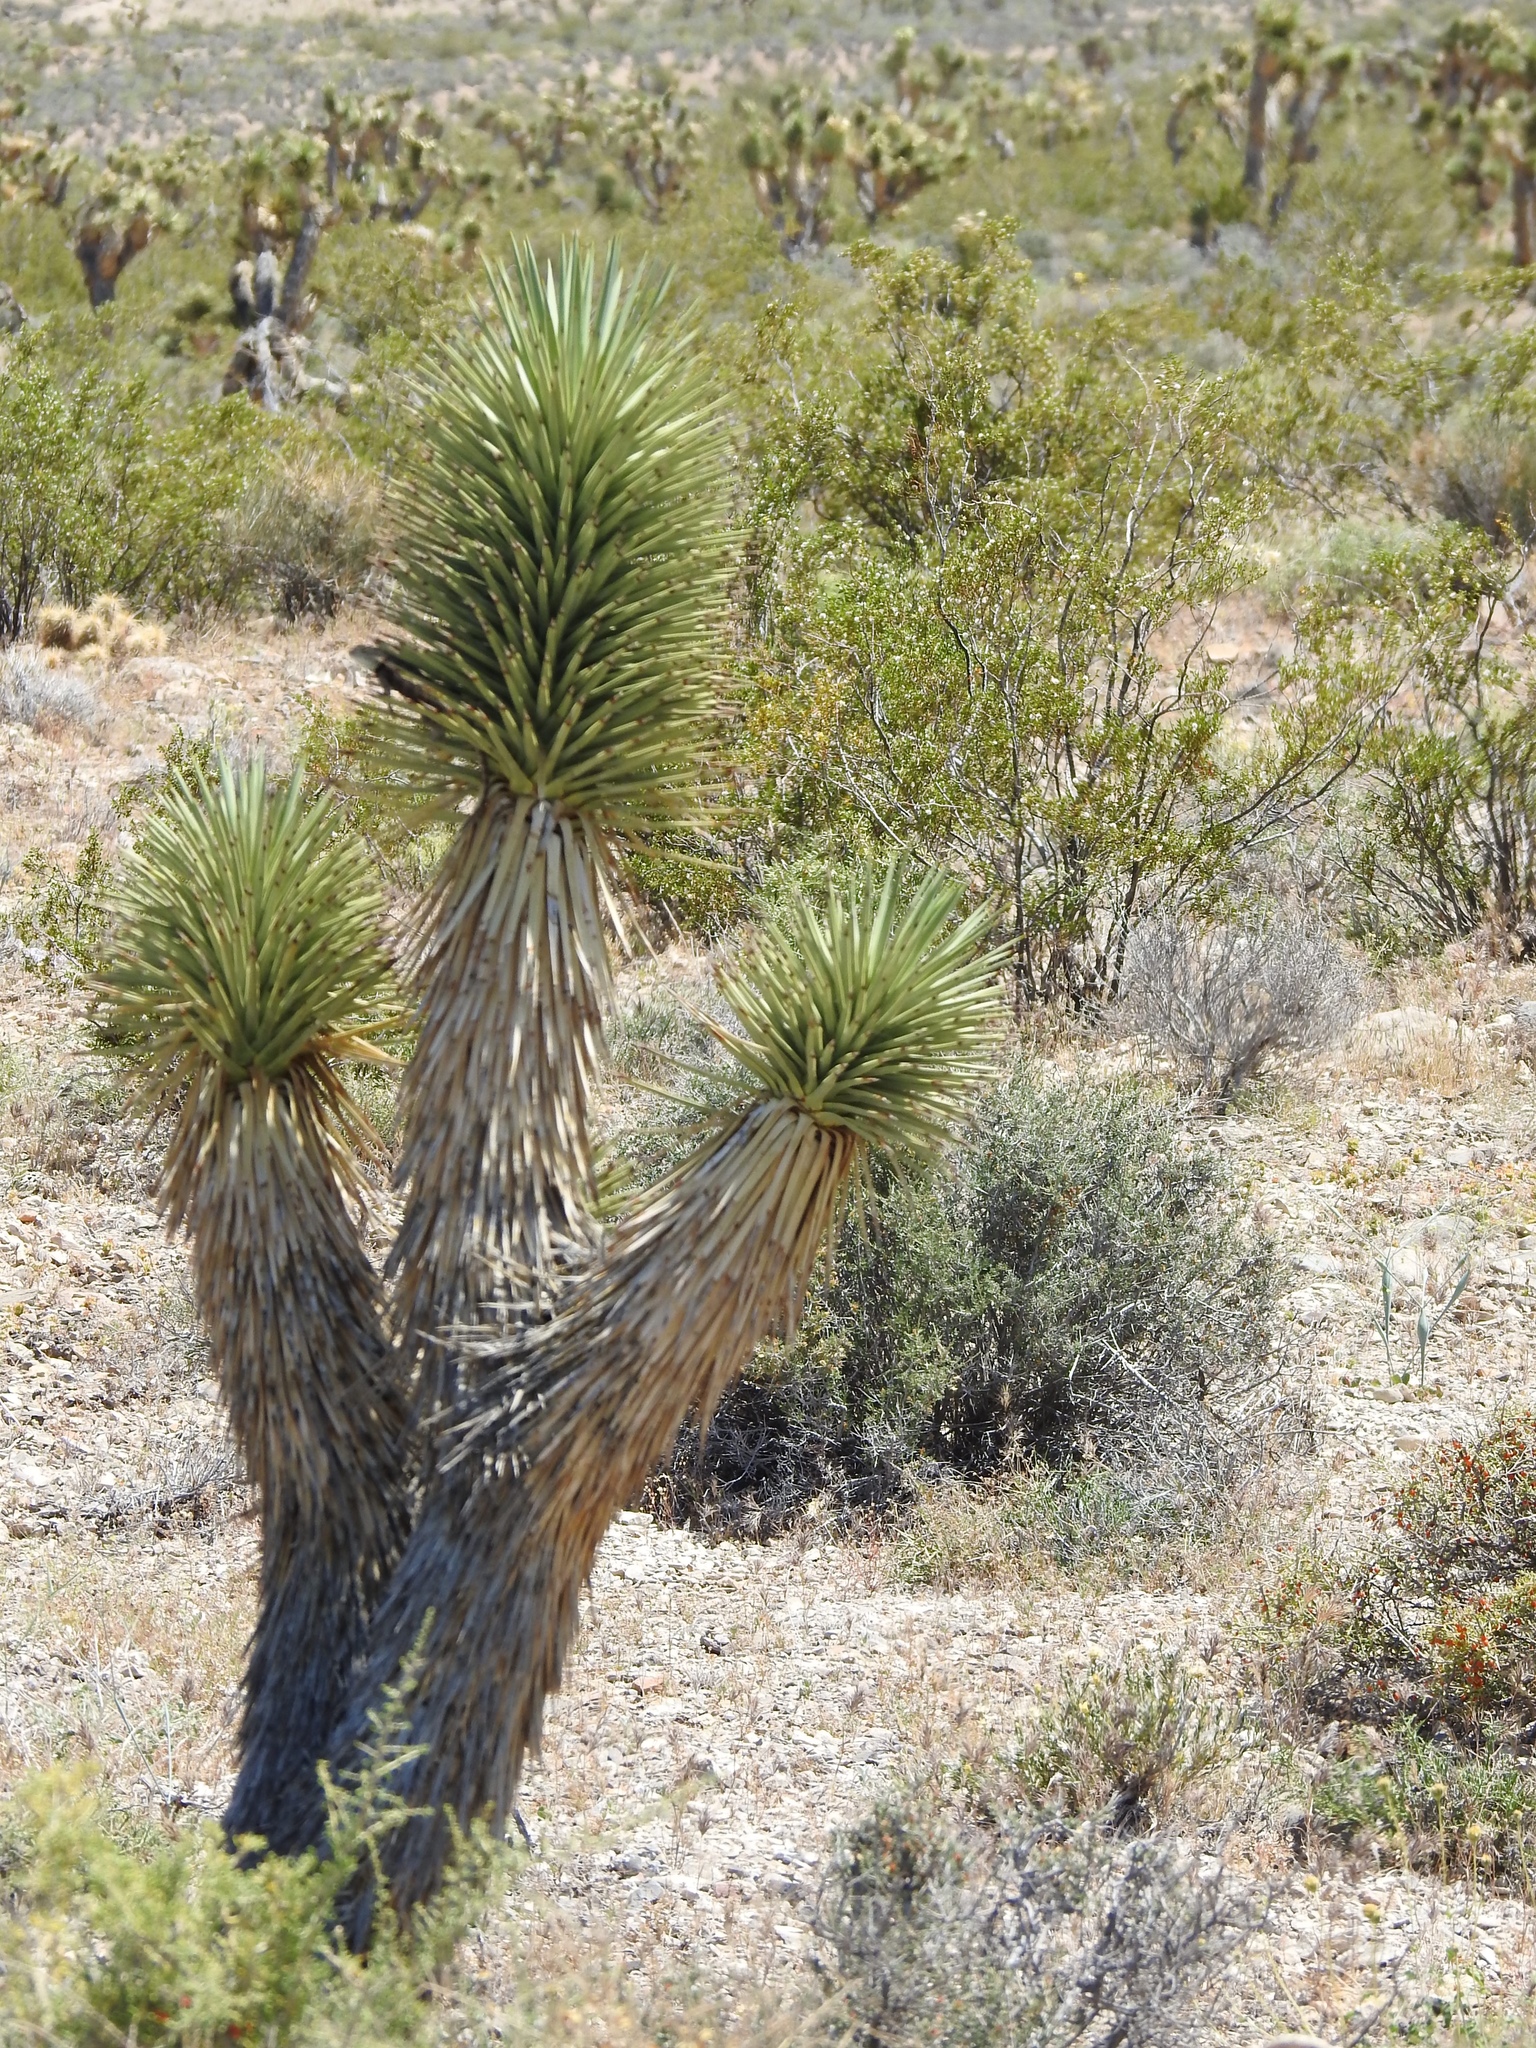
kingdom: Plantae
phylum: Tracheophyta
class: Liliopsida
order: Asparagales
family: Asparagaceae
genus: Yucca
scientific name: Yucca brevifolia
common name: Joshua tree
